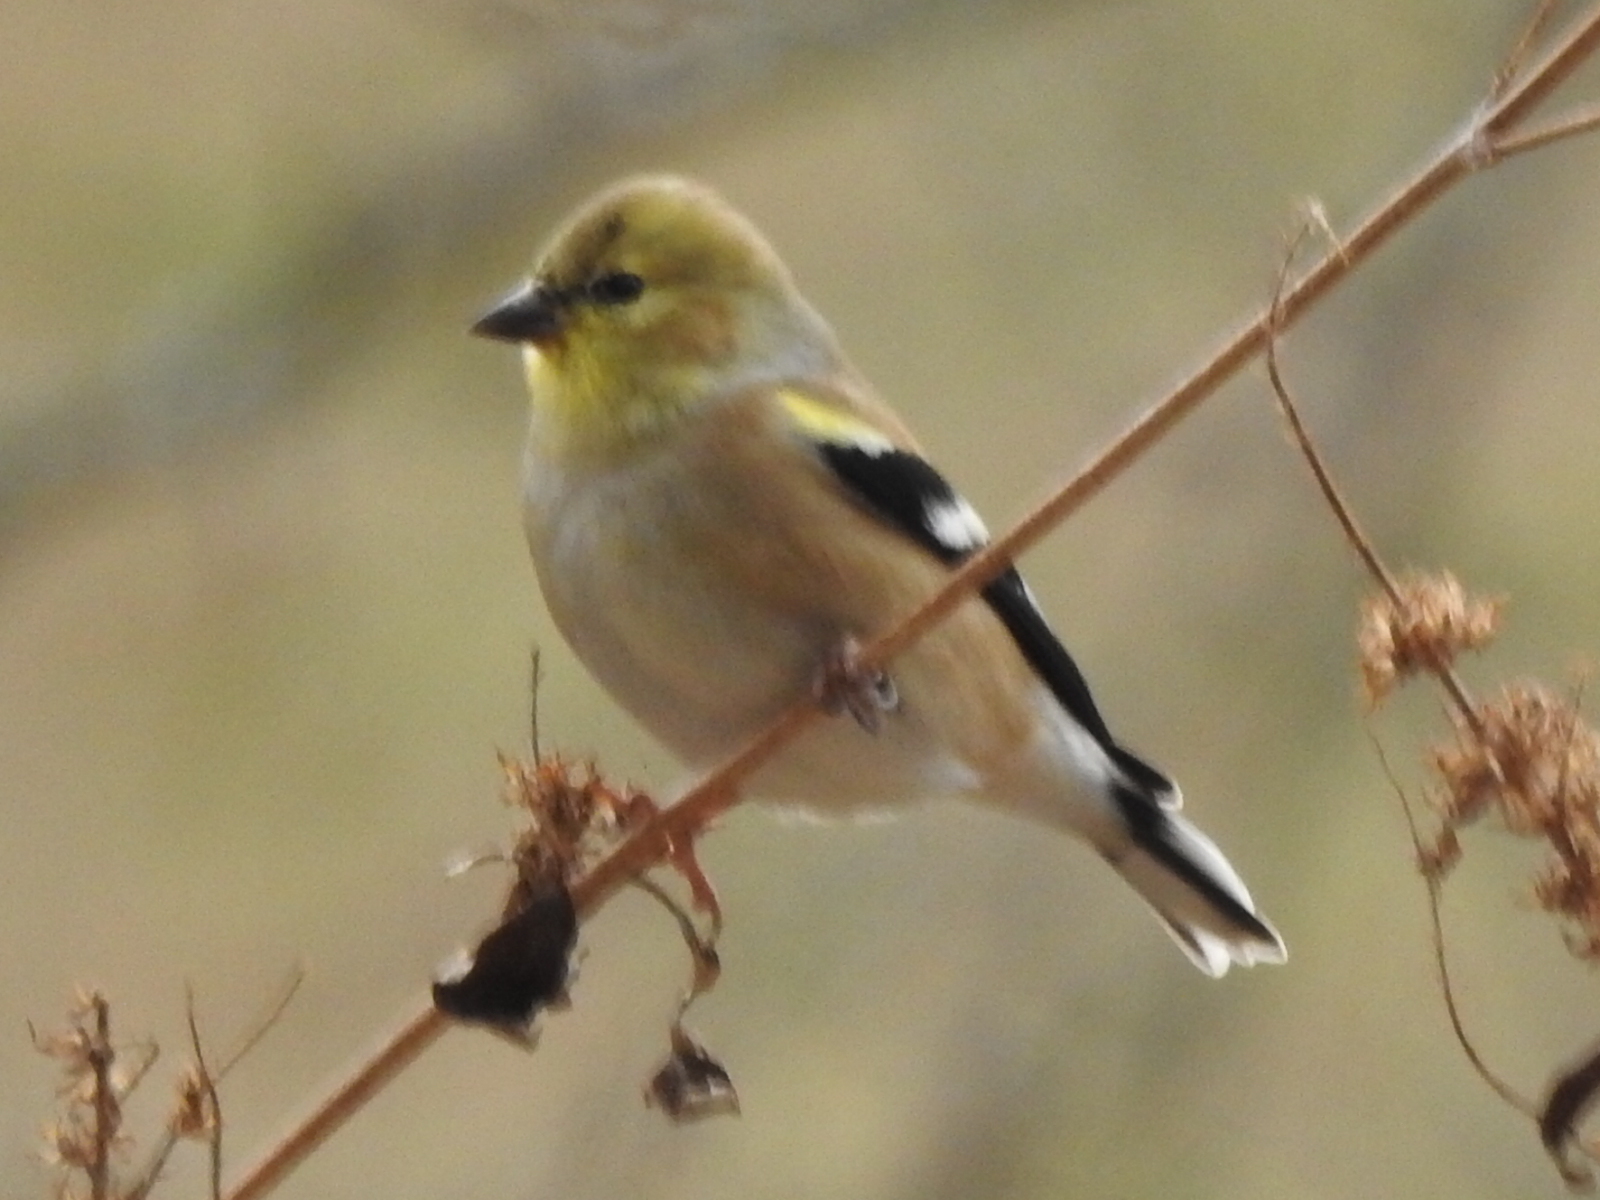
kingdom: Animalia
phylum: Chordata
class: Aves
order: Passeriformes
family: Fringillidae
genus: Spinus
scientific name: Spinus tristis
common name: American goldfinch
